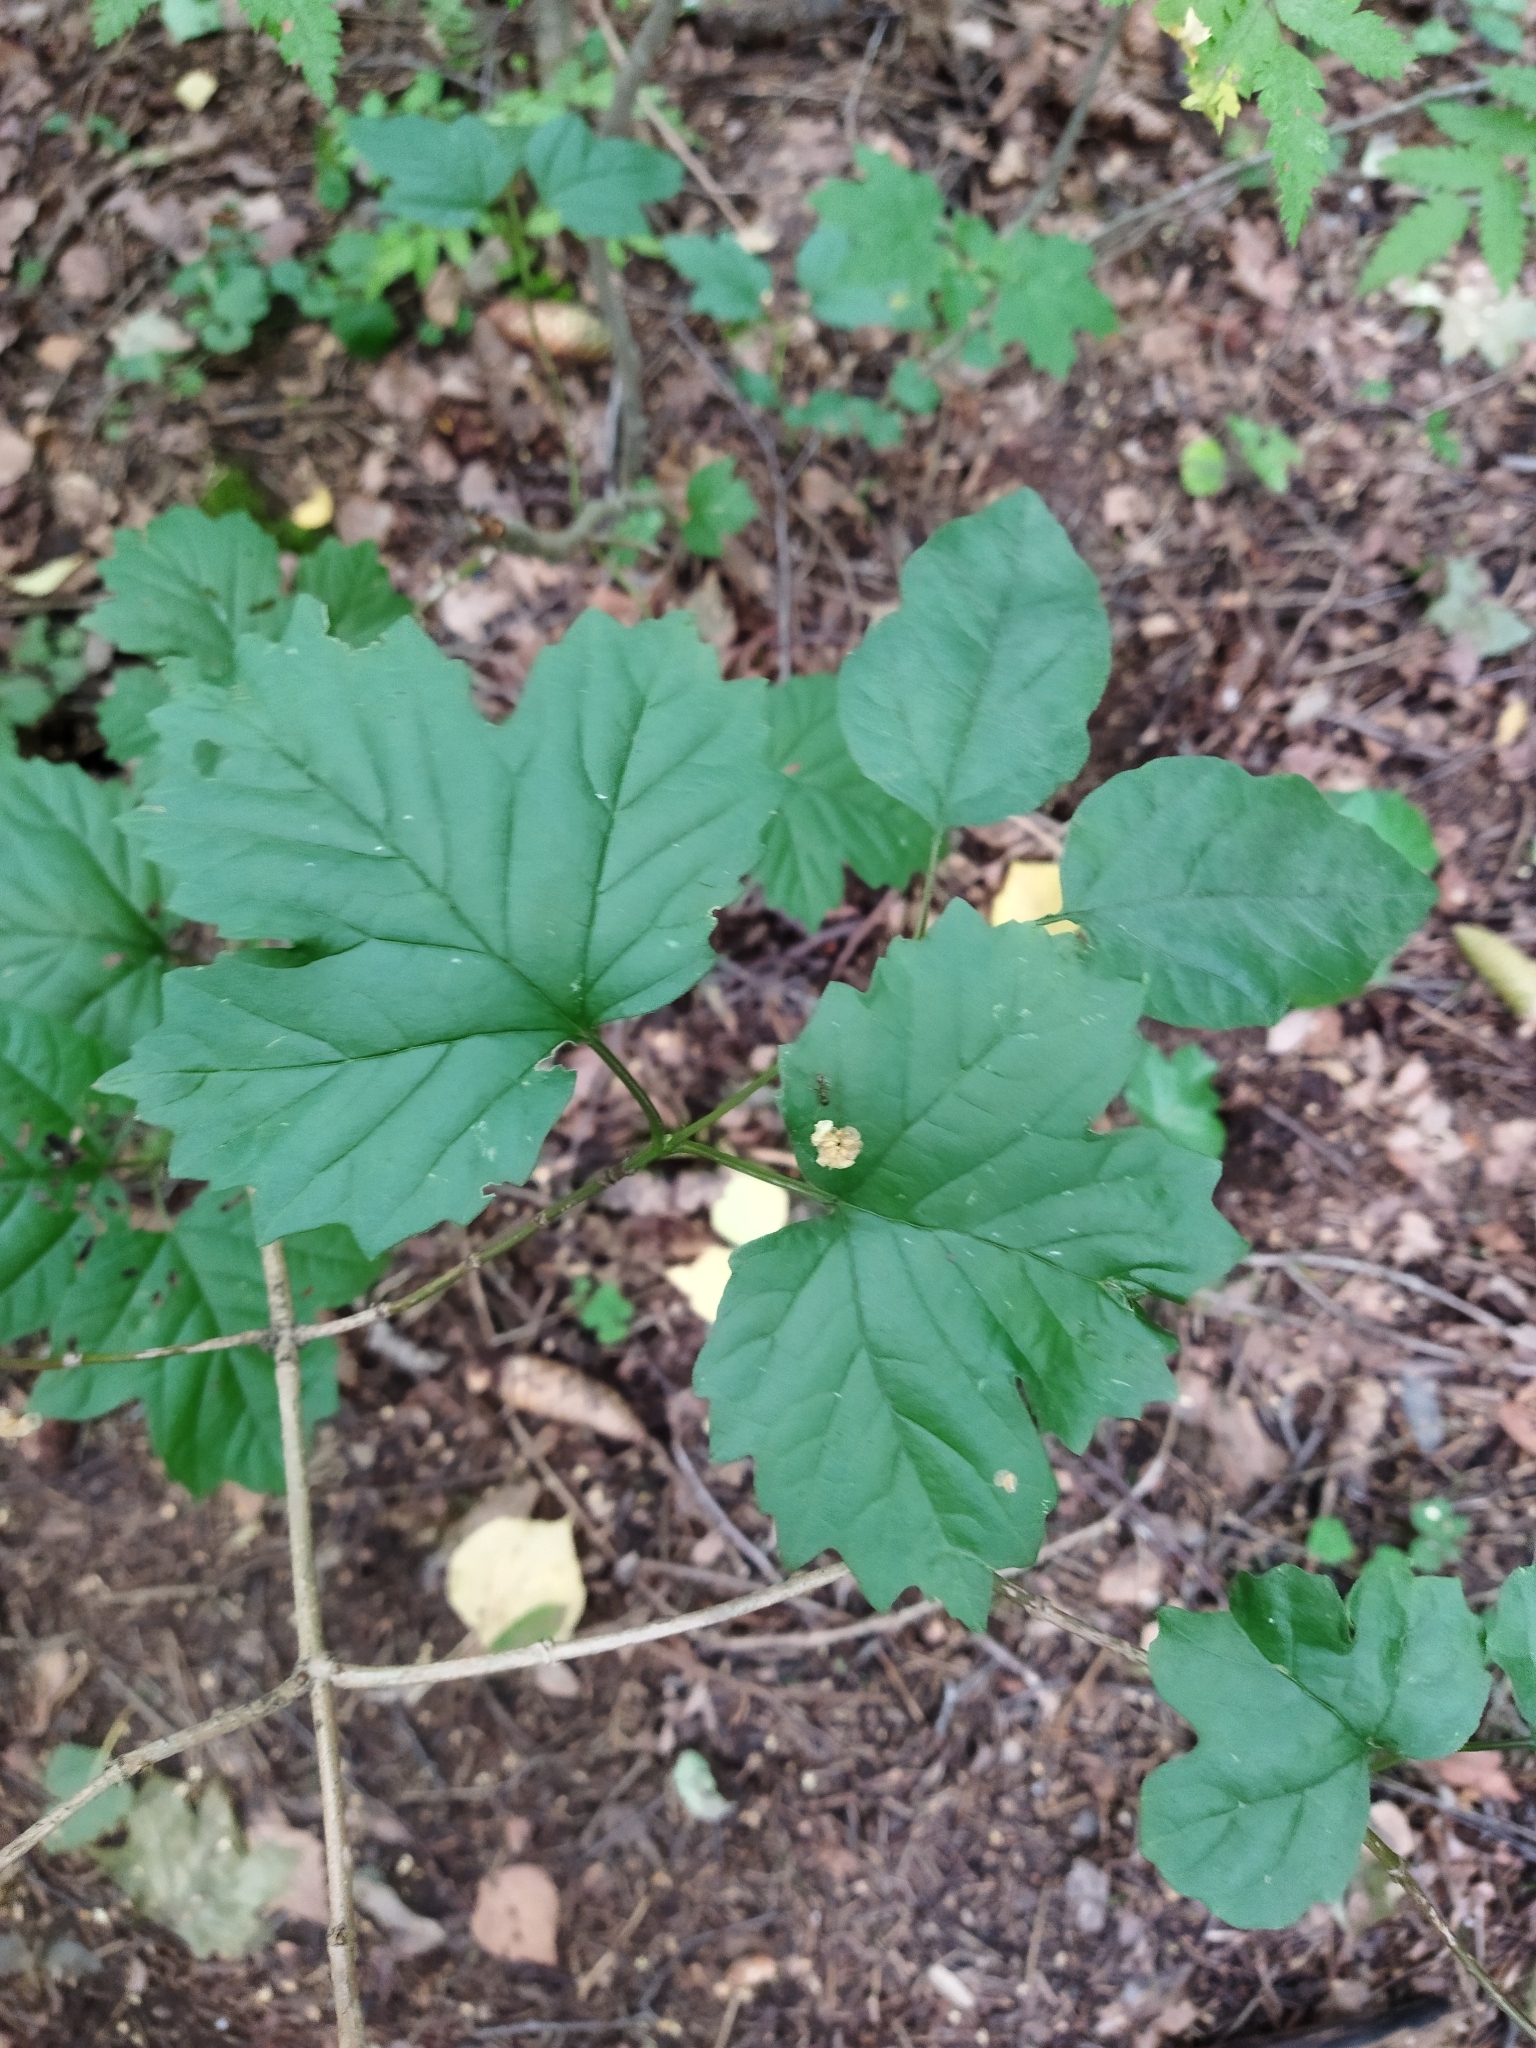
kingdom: Plantae
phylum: Tracheophyta
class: Magnoliopsida
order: Dipsacales
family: Viburnaceae
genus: Viburnum
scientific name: Viburnum opulus
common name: Guelder-rose
